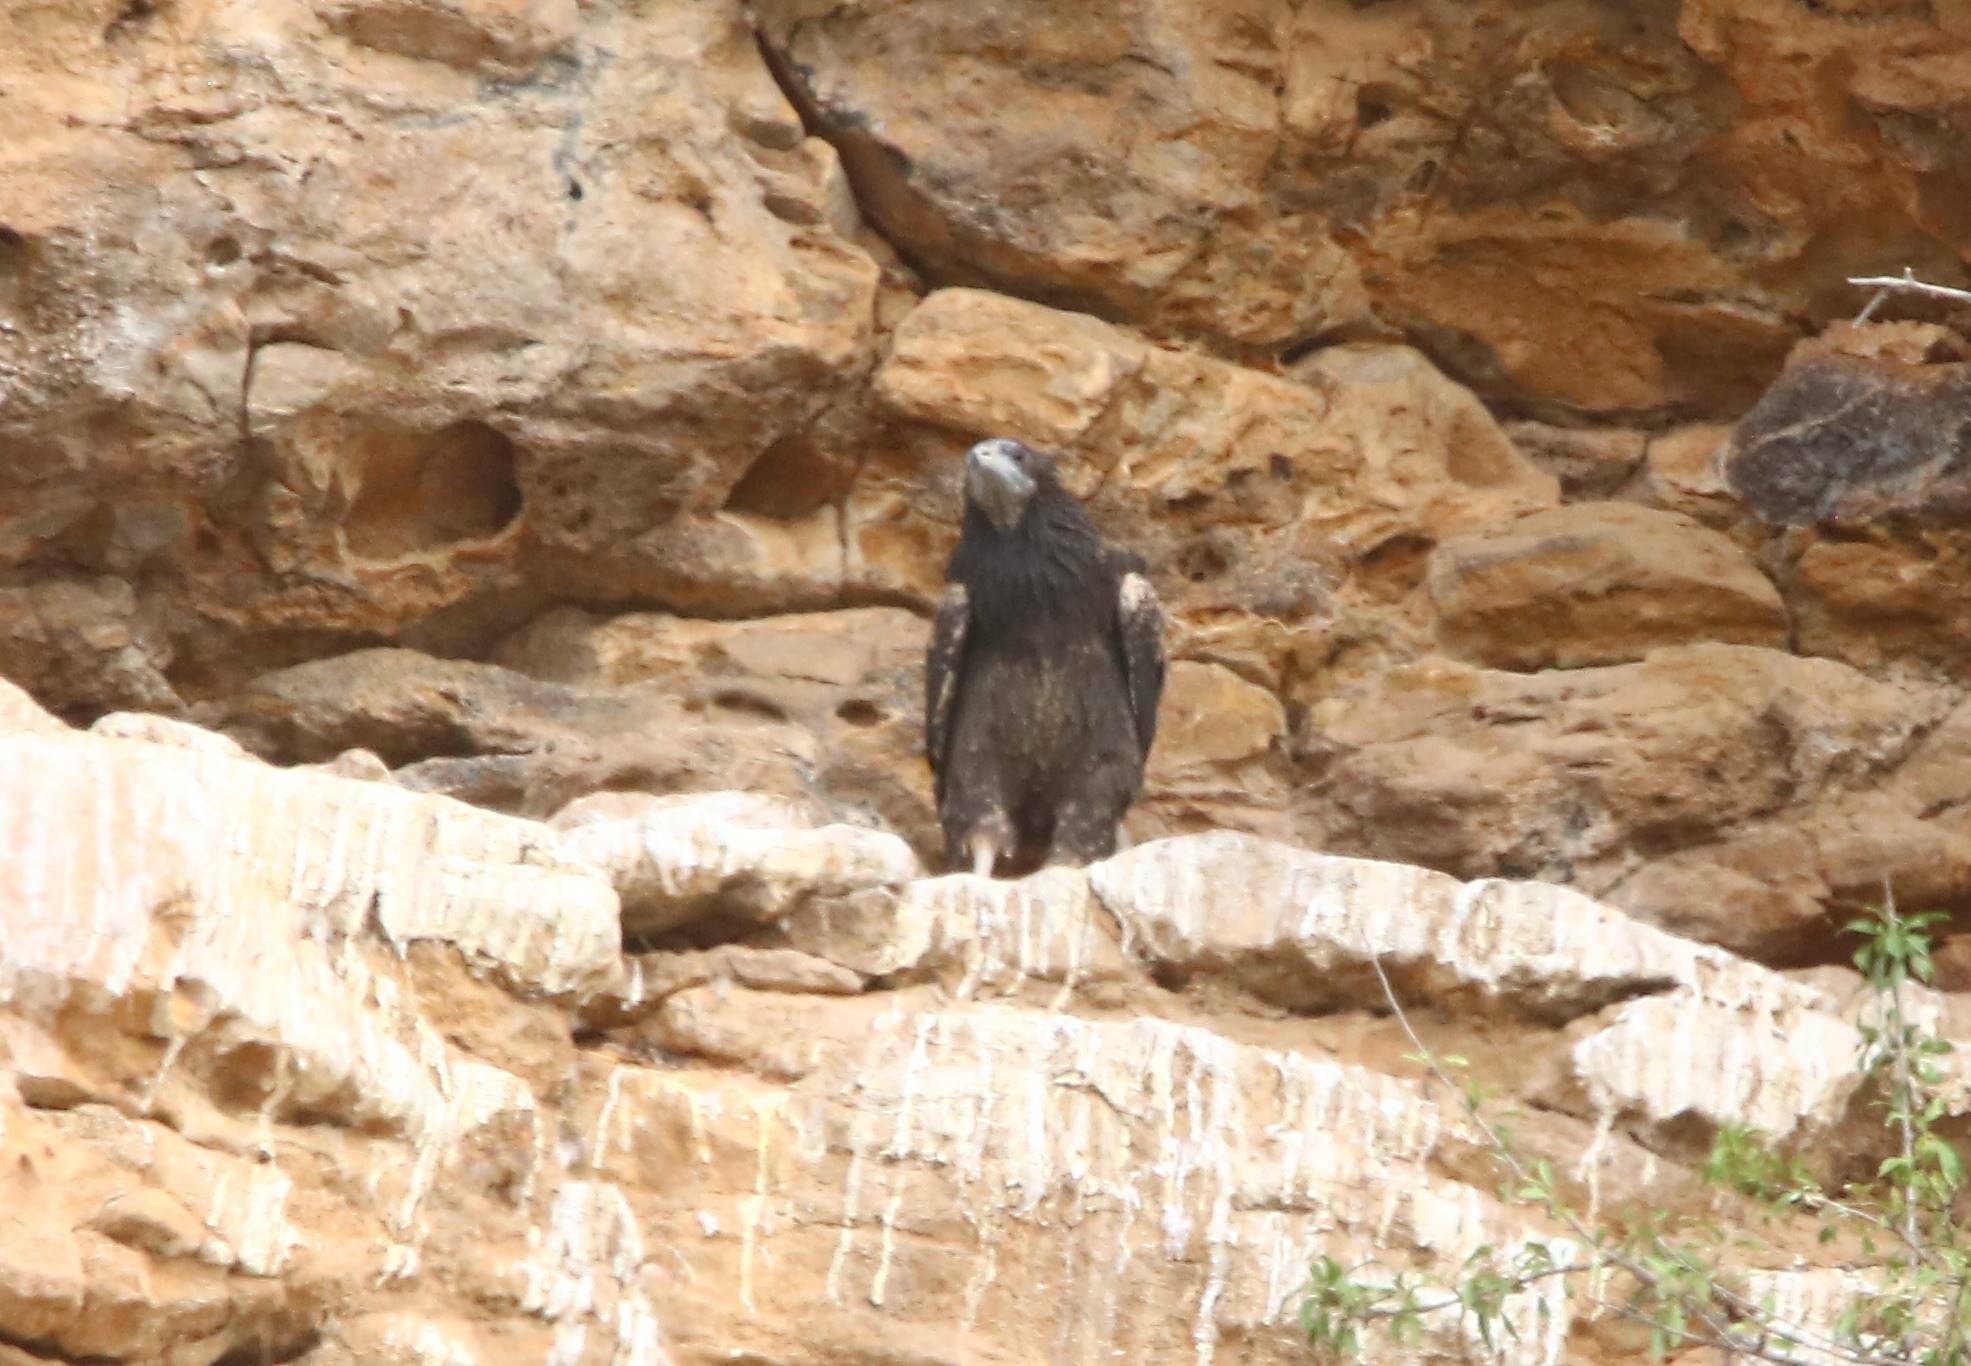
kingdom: Animalia
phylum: Chordata
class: Aves
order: Accipitriformes
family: Accipitridae
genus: Neophron
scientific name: Neophron percnopterus
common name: Egyptian vulture
